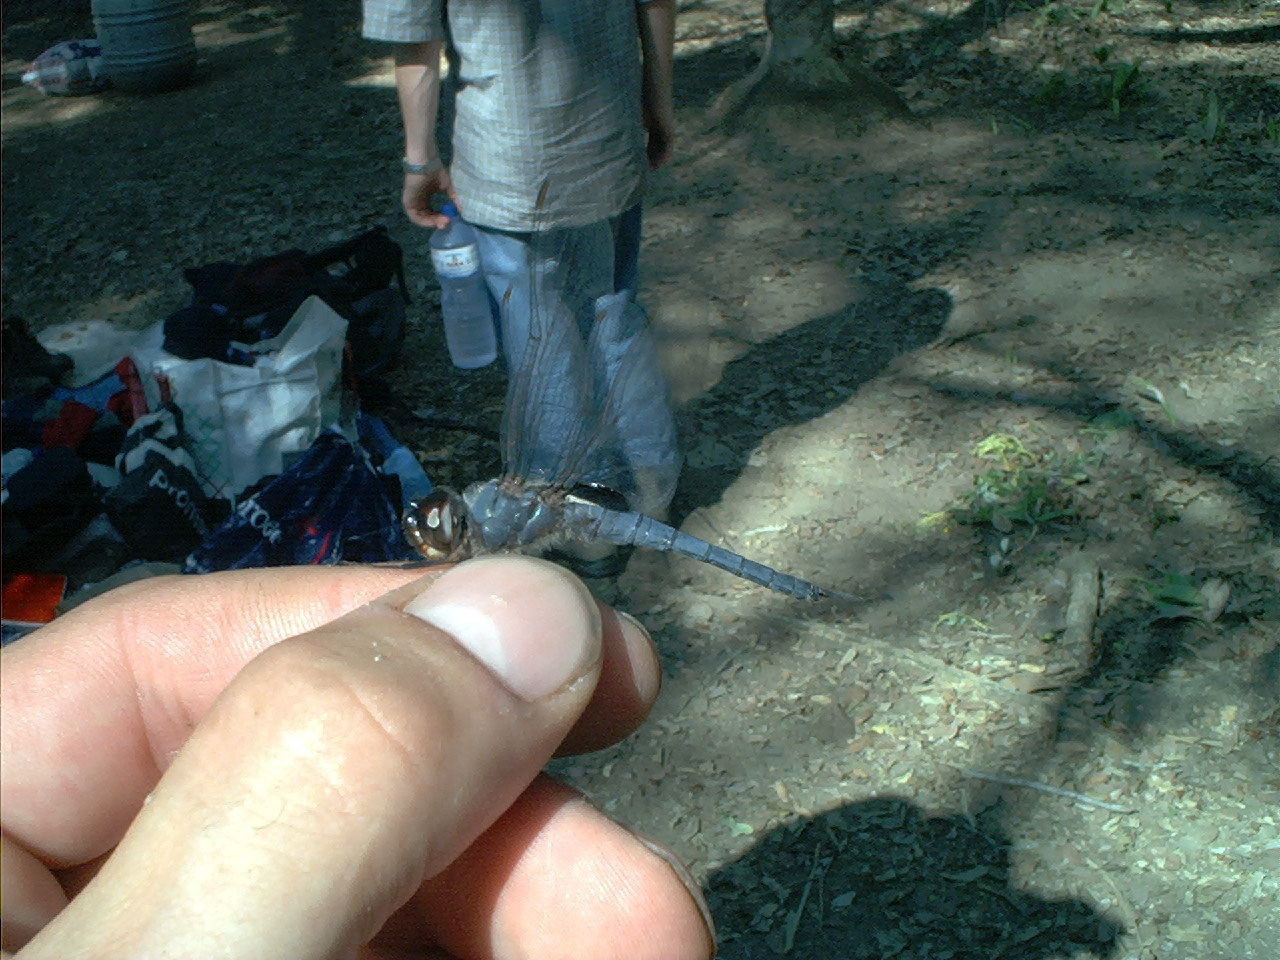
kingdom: Animalia
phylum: Arthropoda
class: Insecta
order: Odonata
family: Libellulidae
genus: Tramea
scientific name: Tramea binotata
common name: Sooty saddlebags
